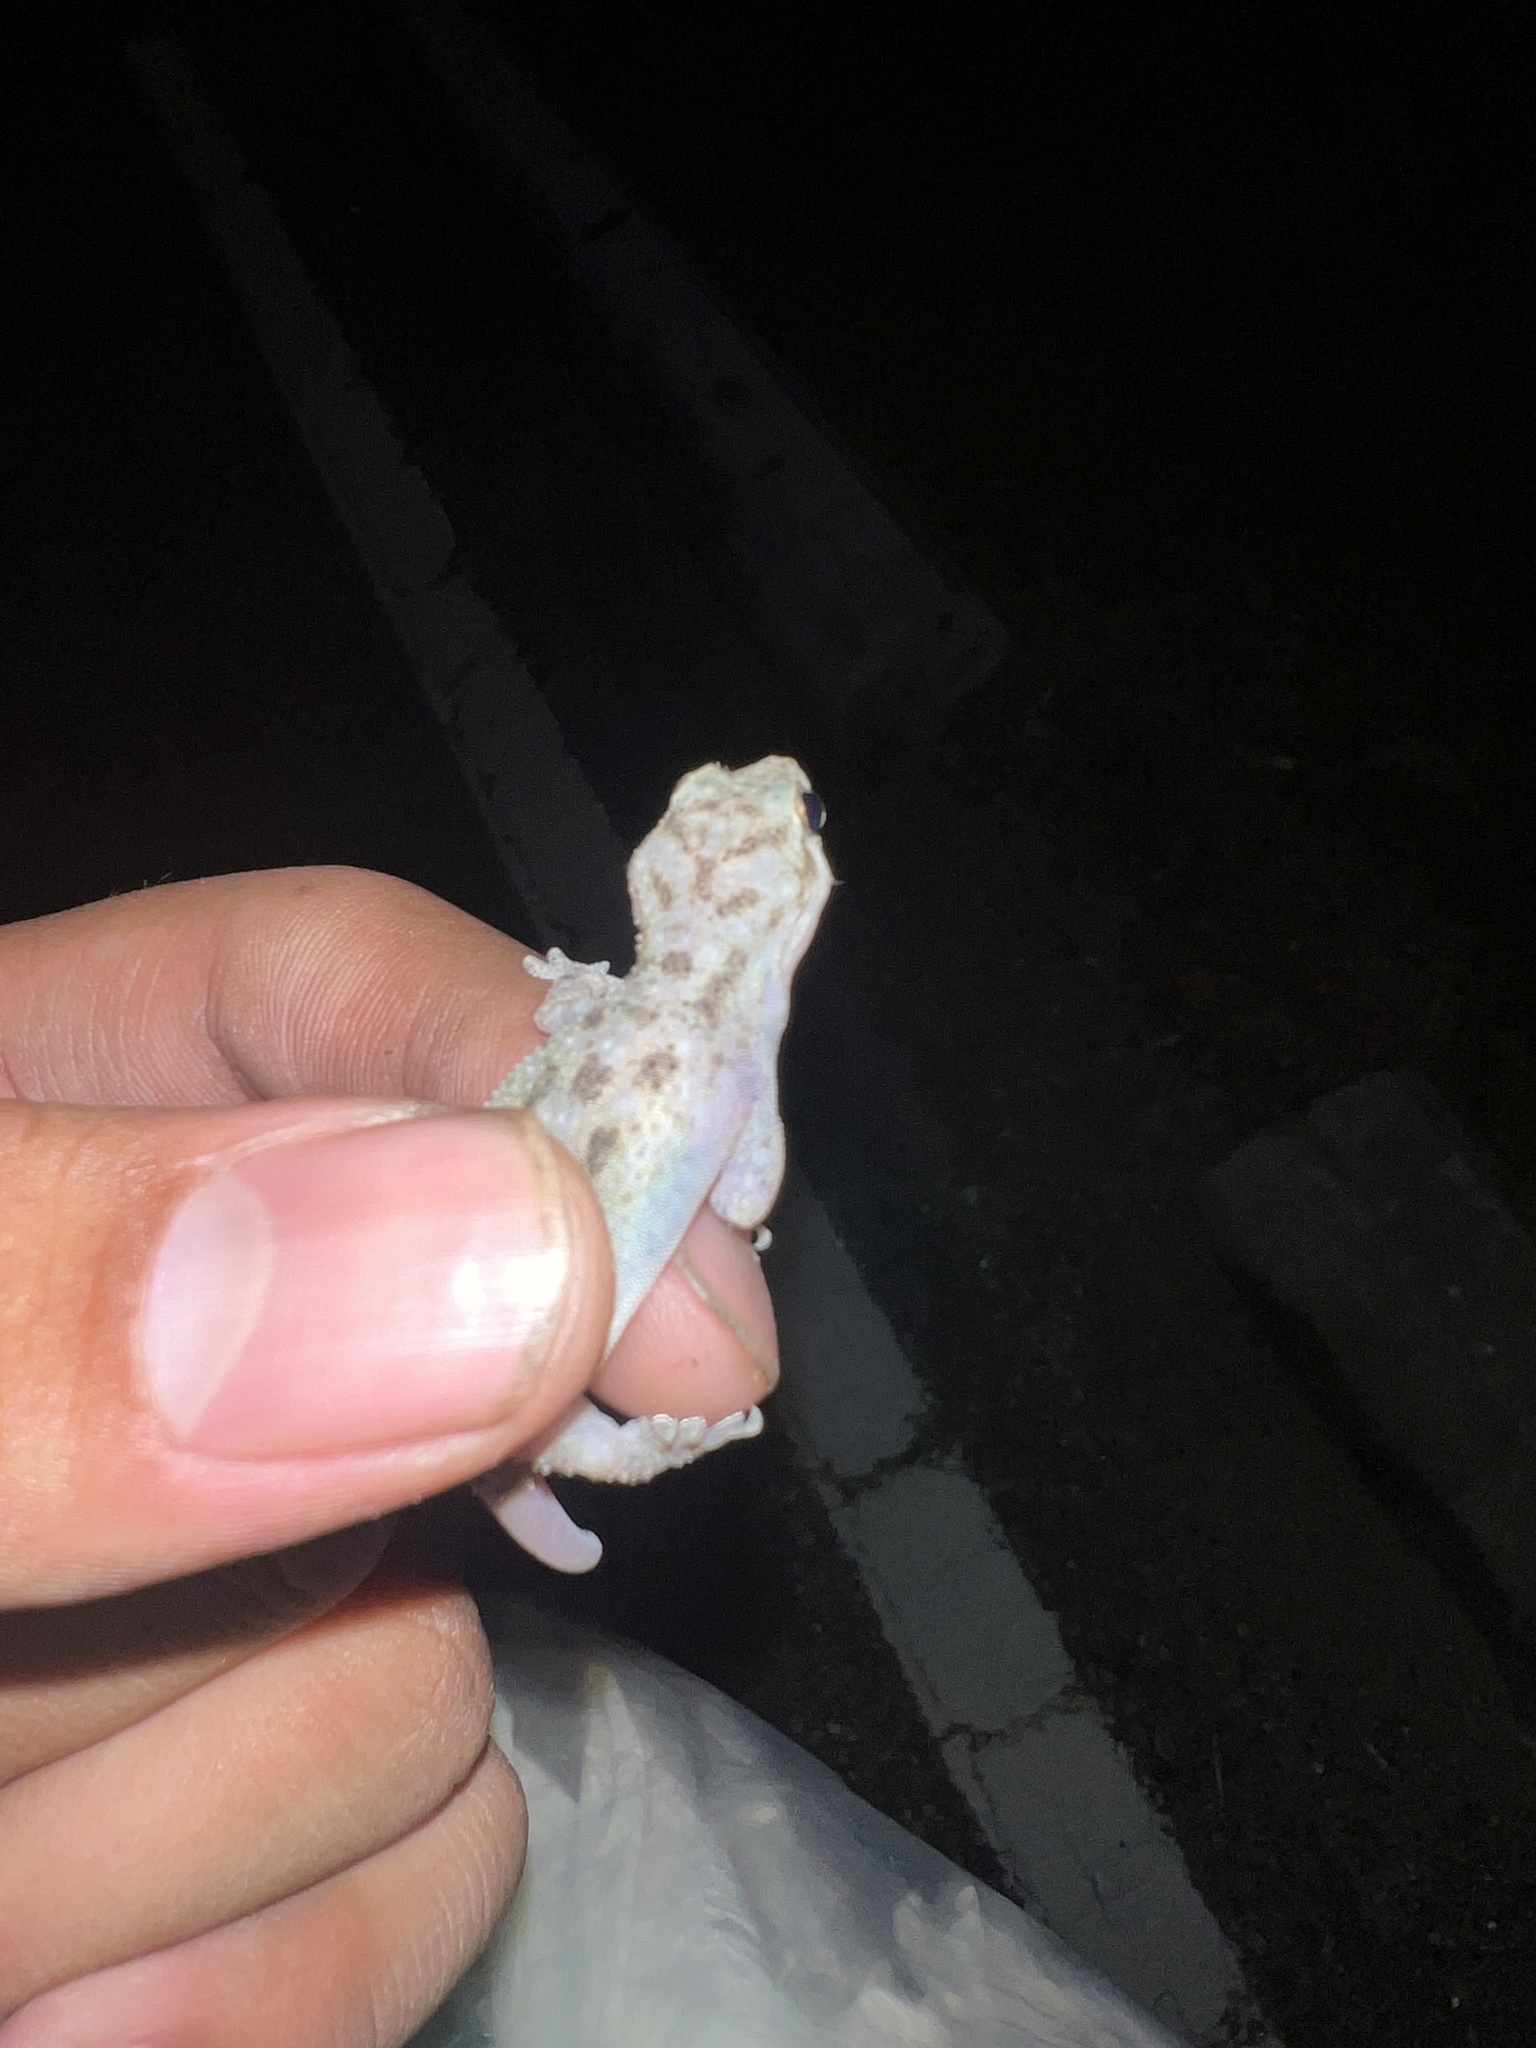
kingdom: Animalia
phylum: Chordata
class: Squamata
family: Gekkonidae
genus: Hemidactylus
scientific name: Hemidactylus parvimaculatus
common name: Spotted house gecko
